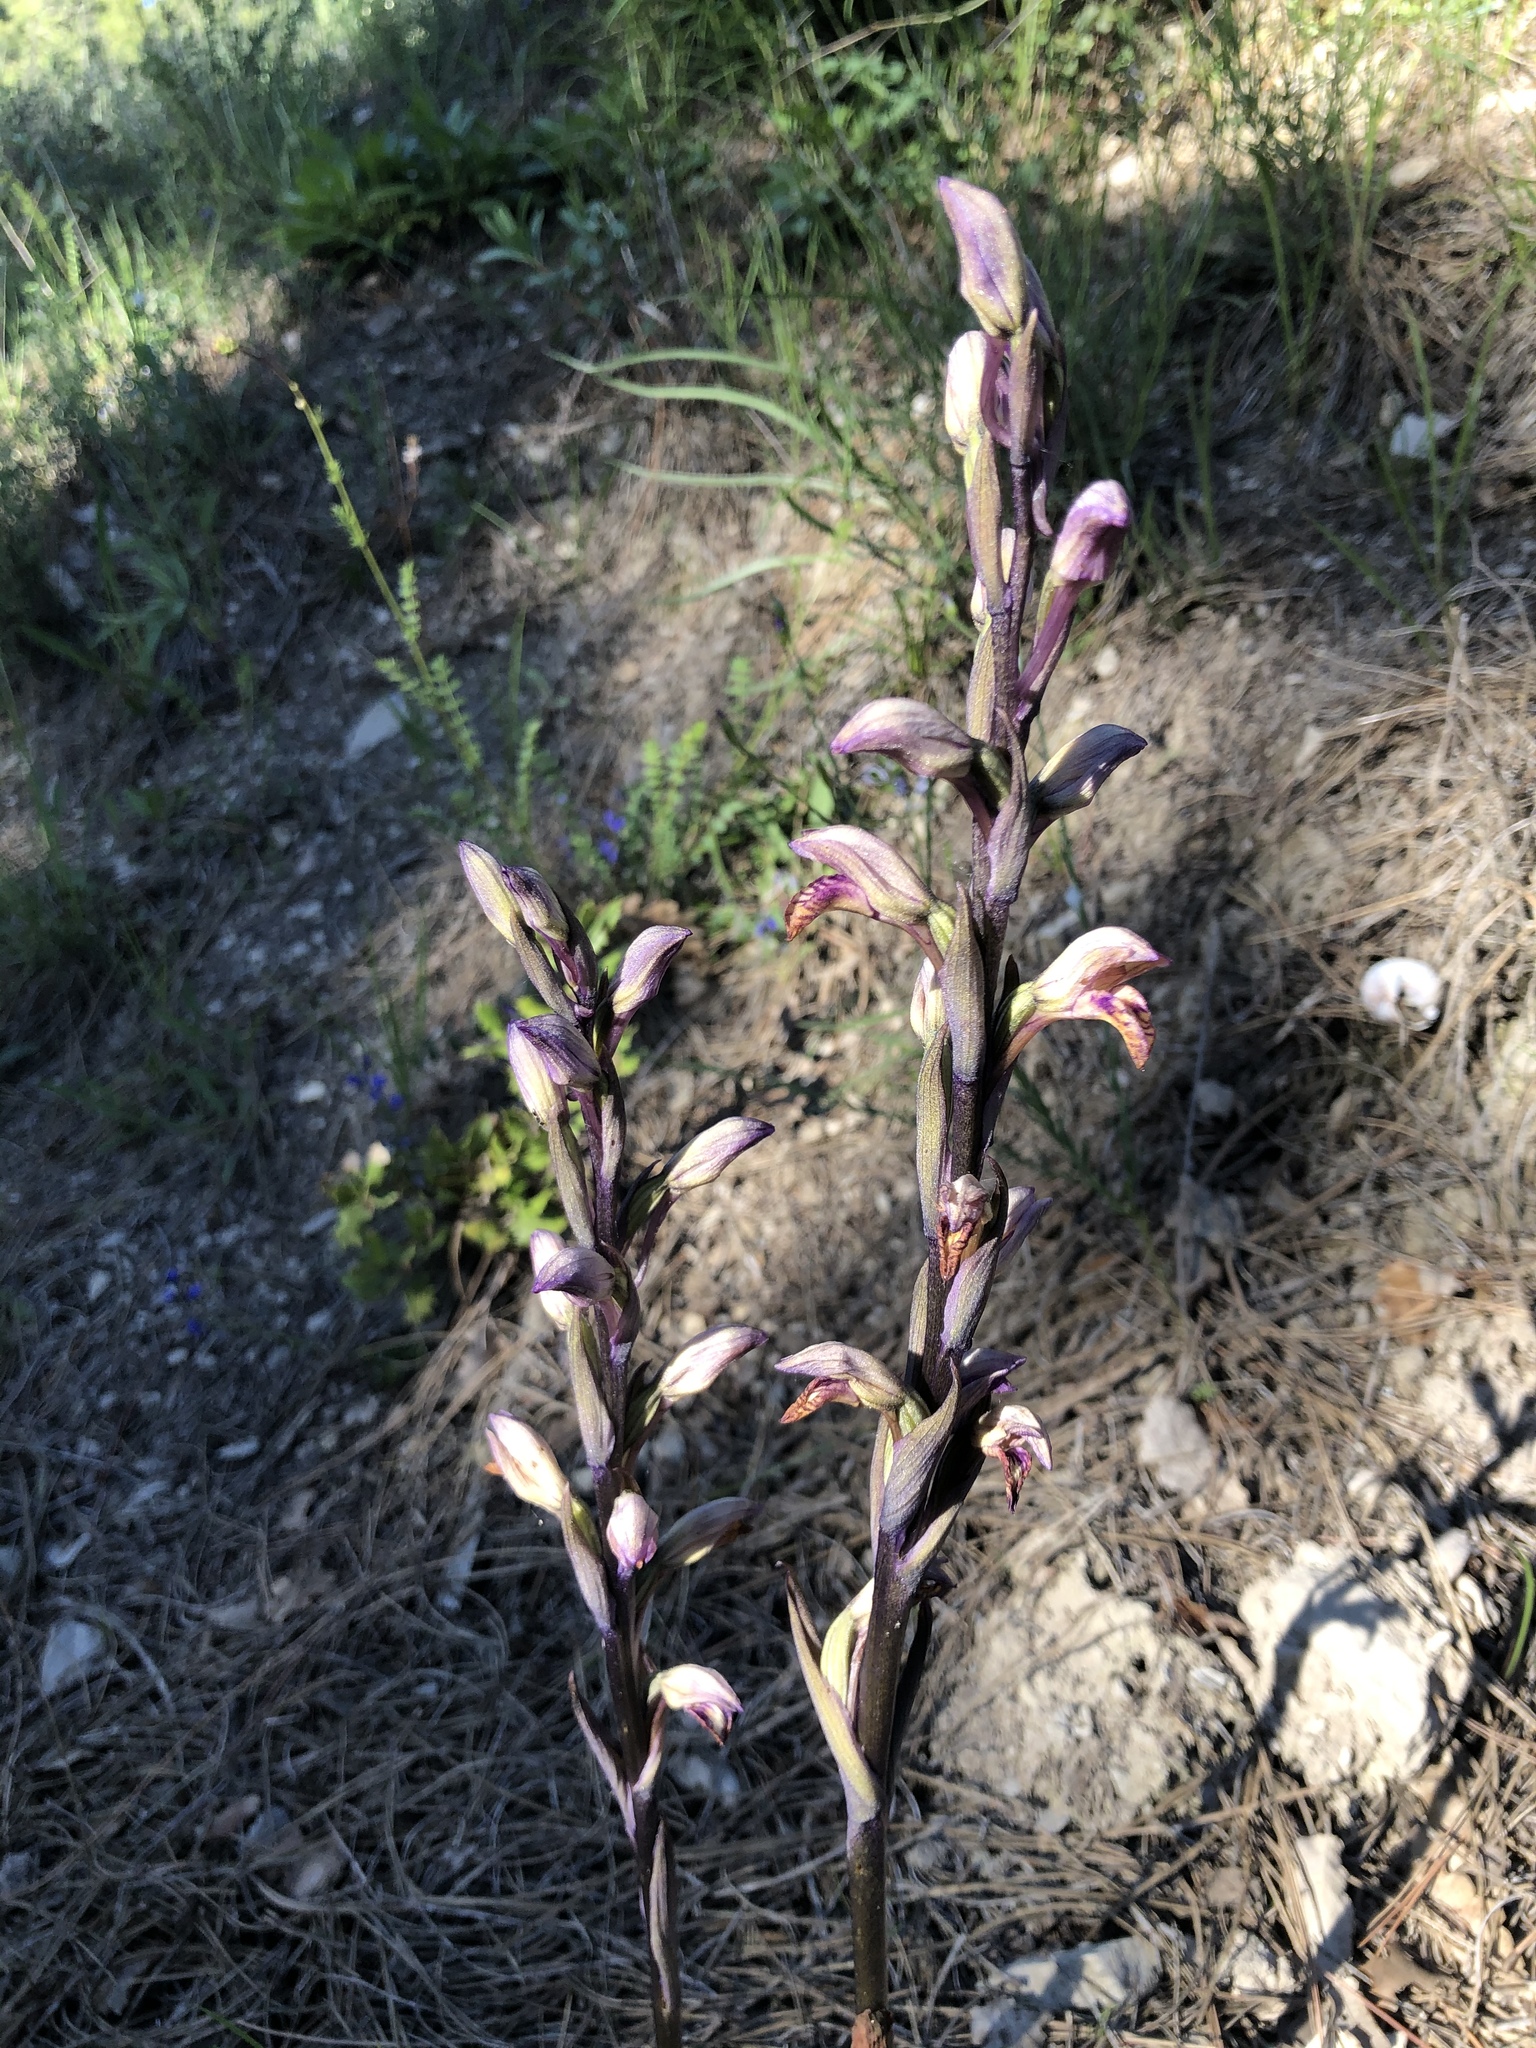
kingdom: Plantae
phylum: Tracheophyta
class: Liliopsida
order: Asparagales
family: Orchidaceae
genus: Limodorum
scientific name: Limodorum abortivum
